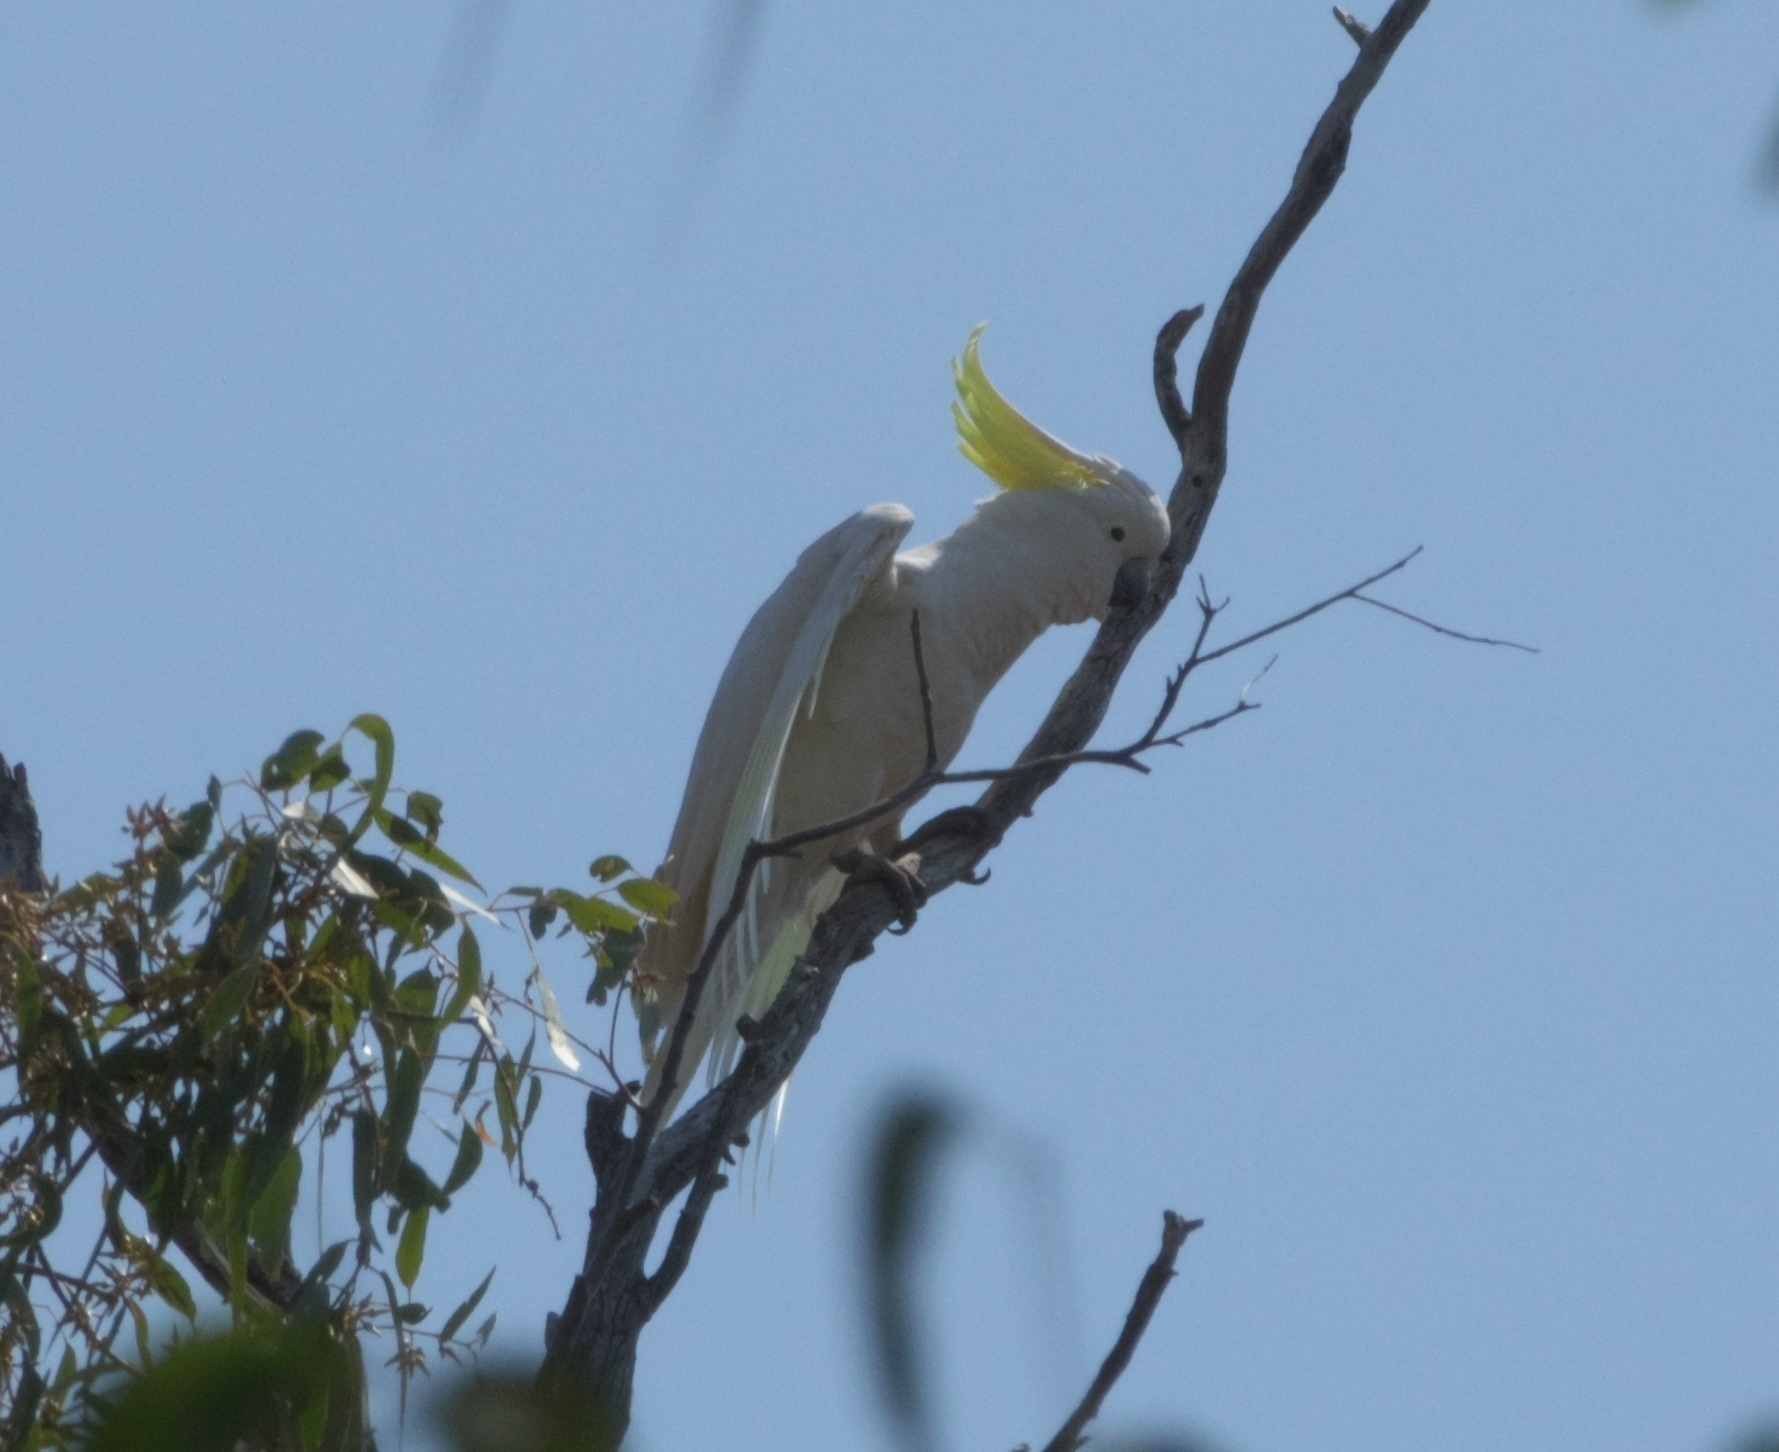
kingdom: Animalia
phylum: Chordata
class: Aves
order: Psittaciformes
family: Psittacidae
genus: Cacatua
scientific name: Cacatua galerita
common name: Sulphur-crested cockatoo
